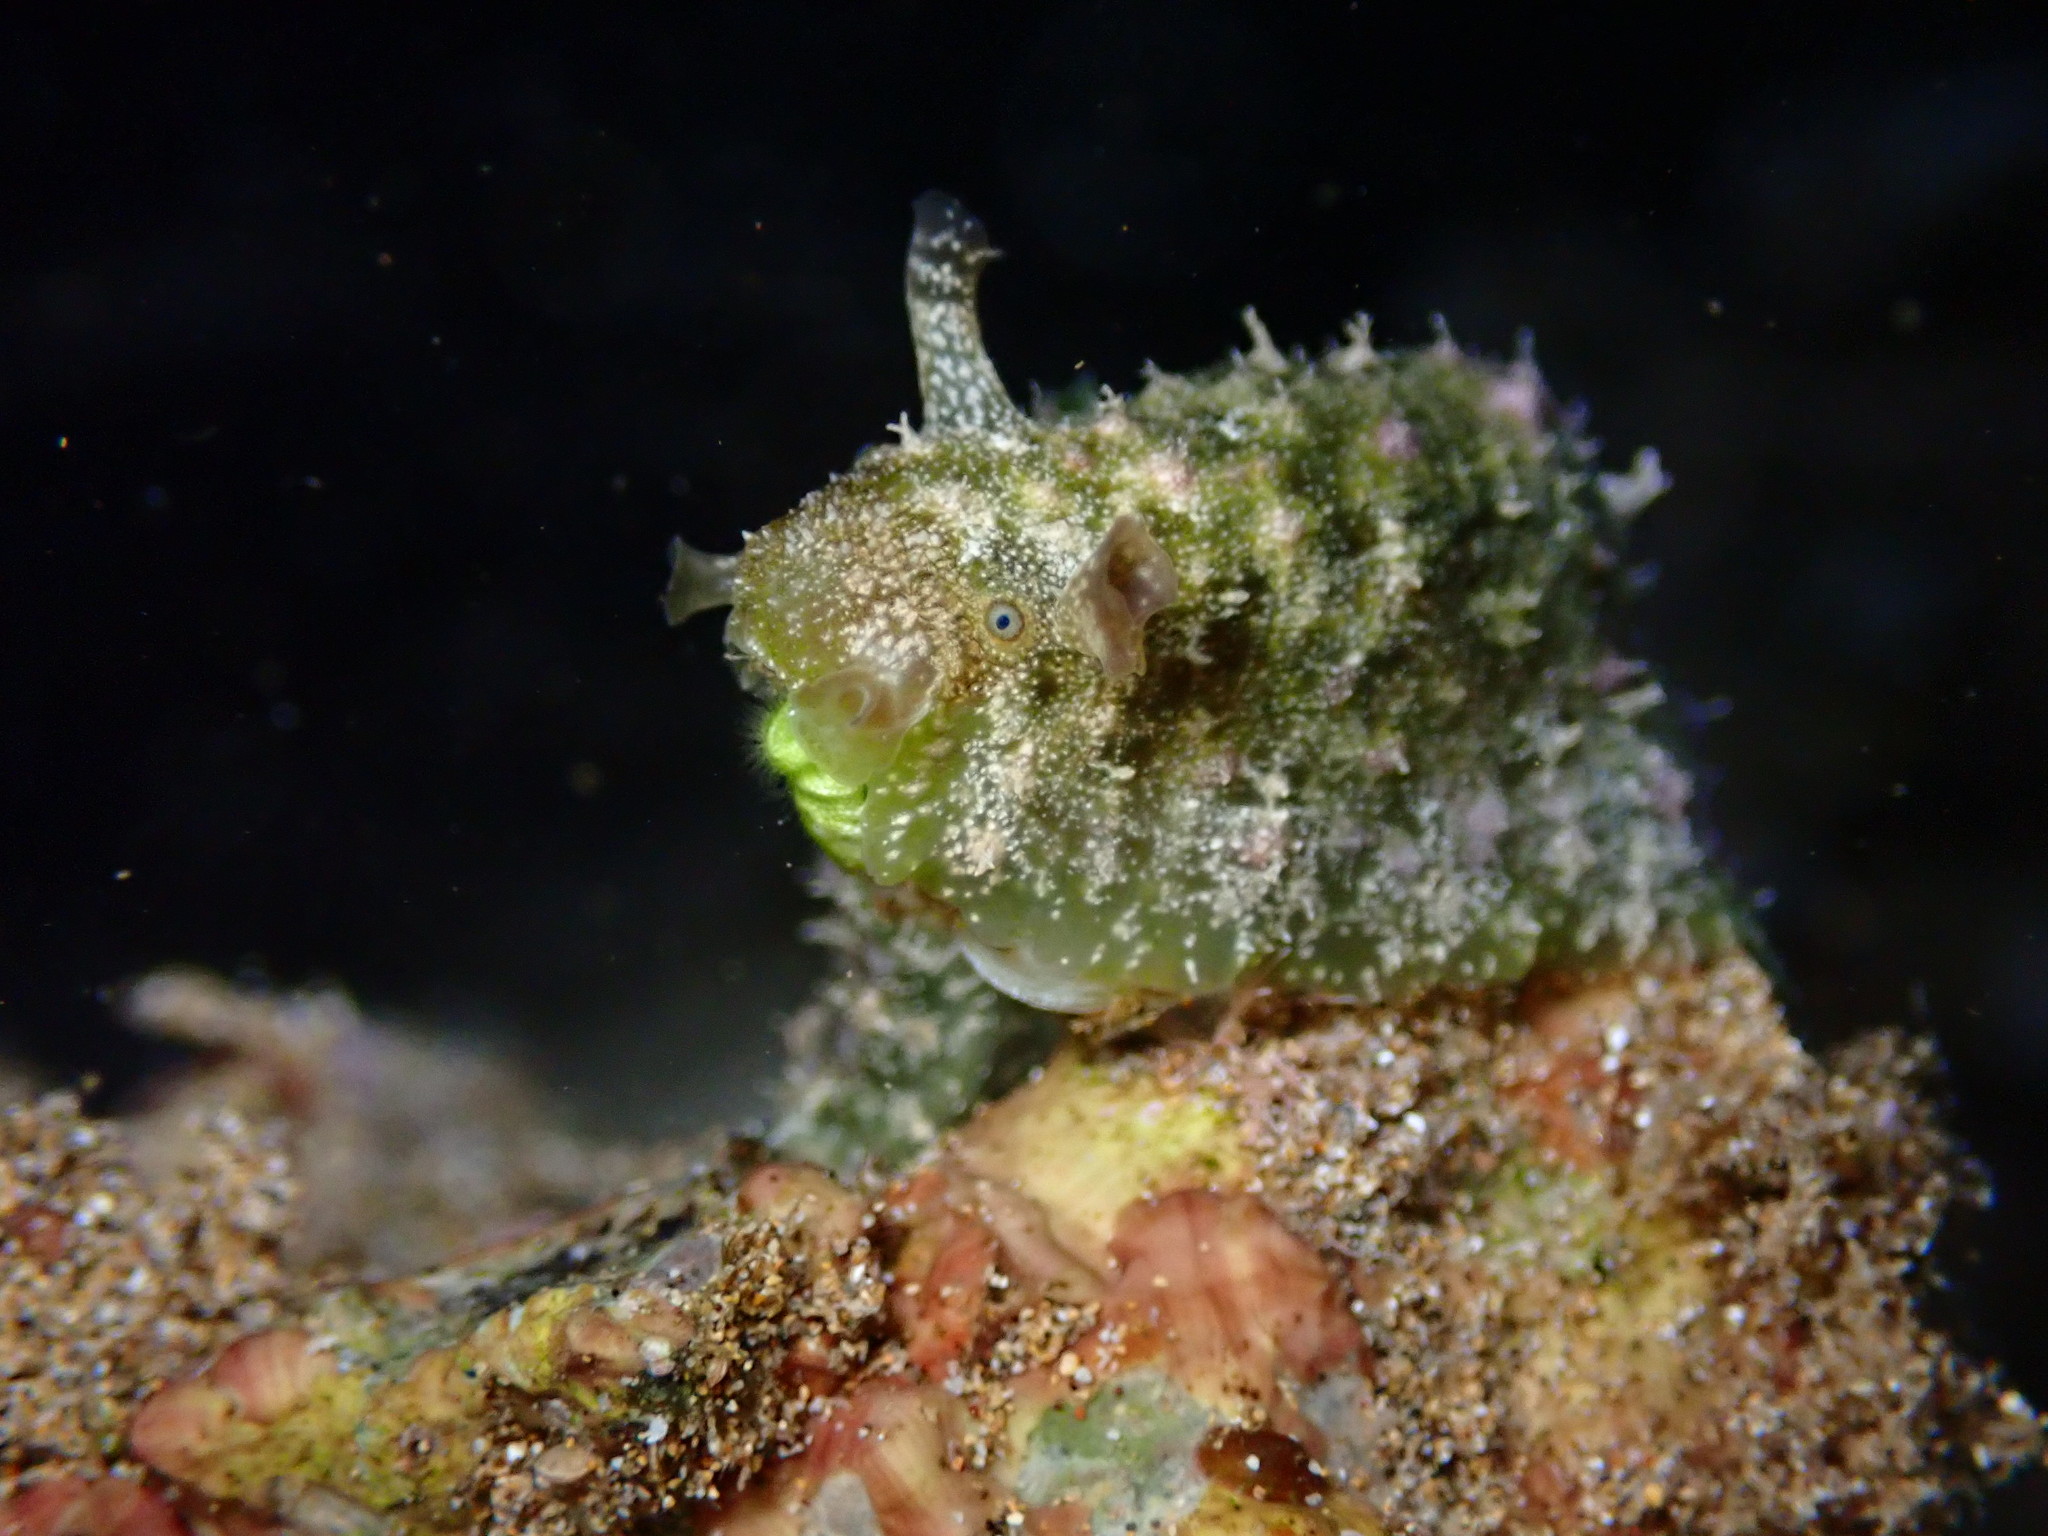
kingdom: Animalia
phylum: Mollusca
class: Gastropoda
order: Aplysiida
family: Aplysiidae
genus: Dolabrifera
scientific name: Dolabrifera dolabrifera
